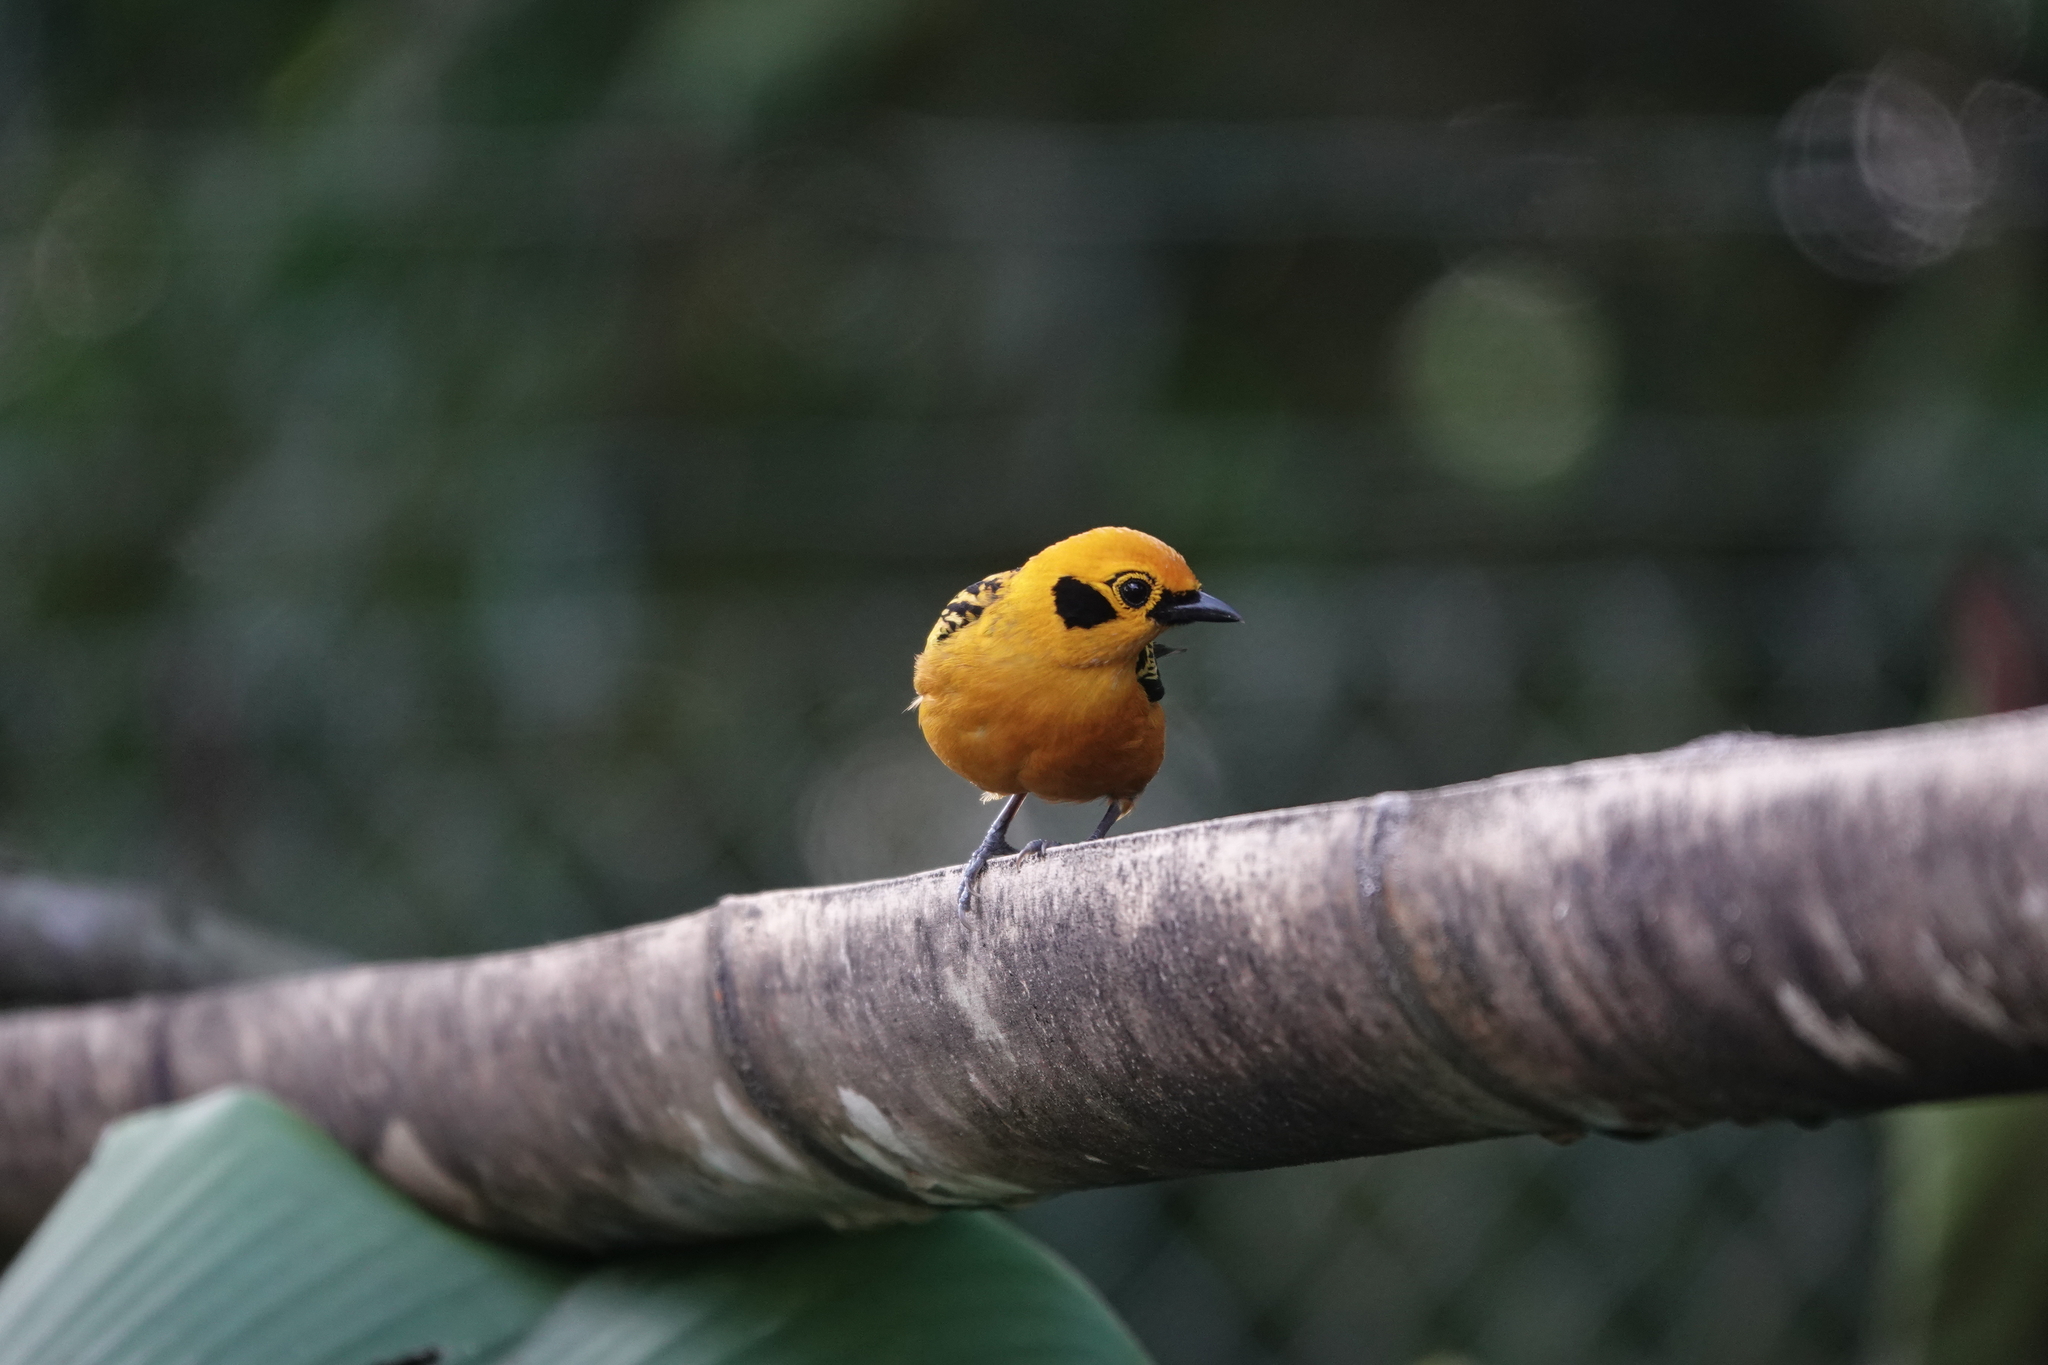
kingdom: Animalia
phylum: Chordata
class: Aves
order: Passeriformes
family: Thraupidae
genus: Tangara
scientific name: Tangara arthus
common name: Golden tanager
